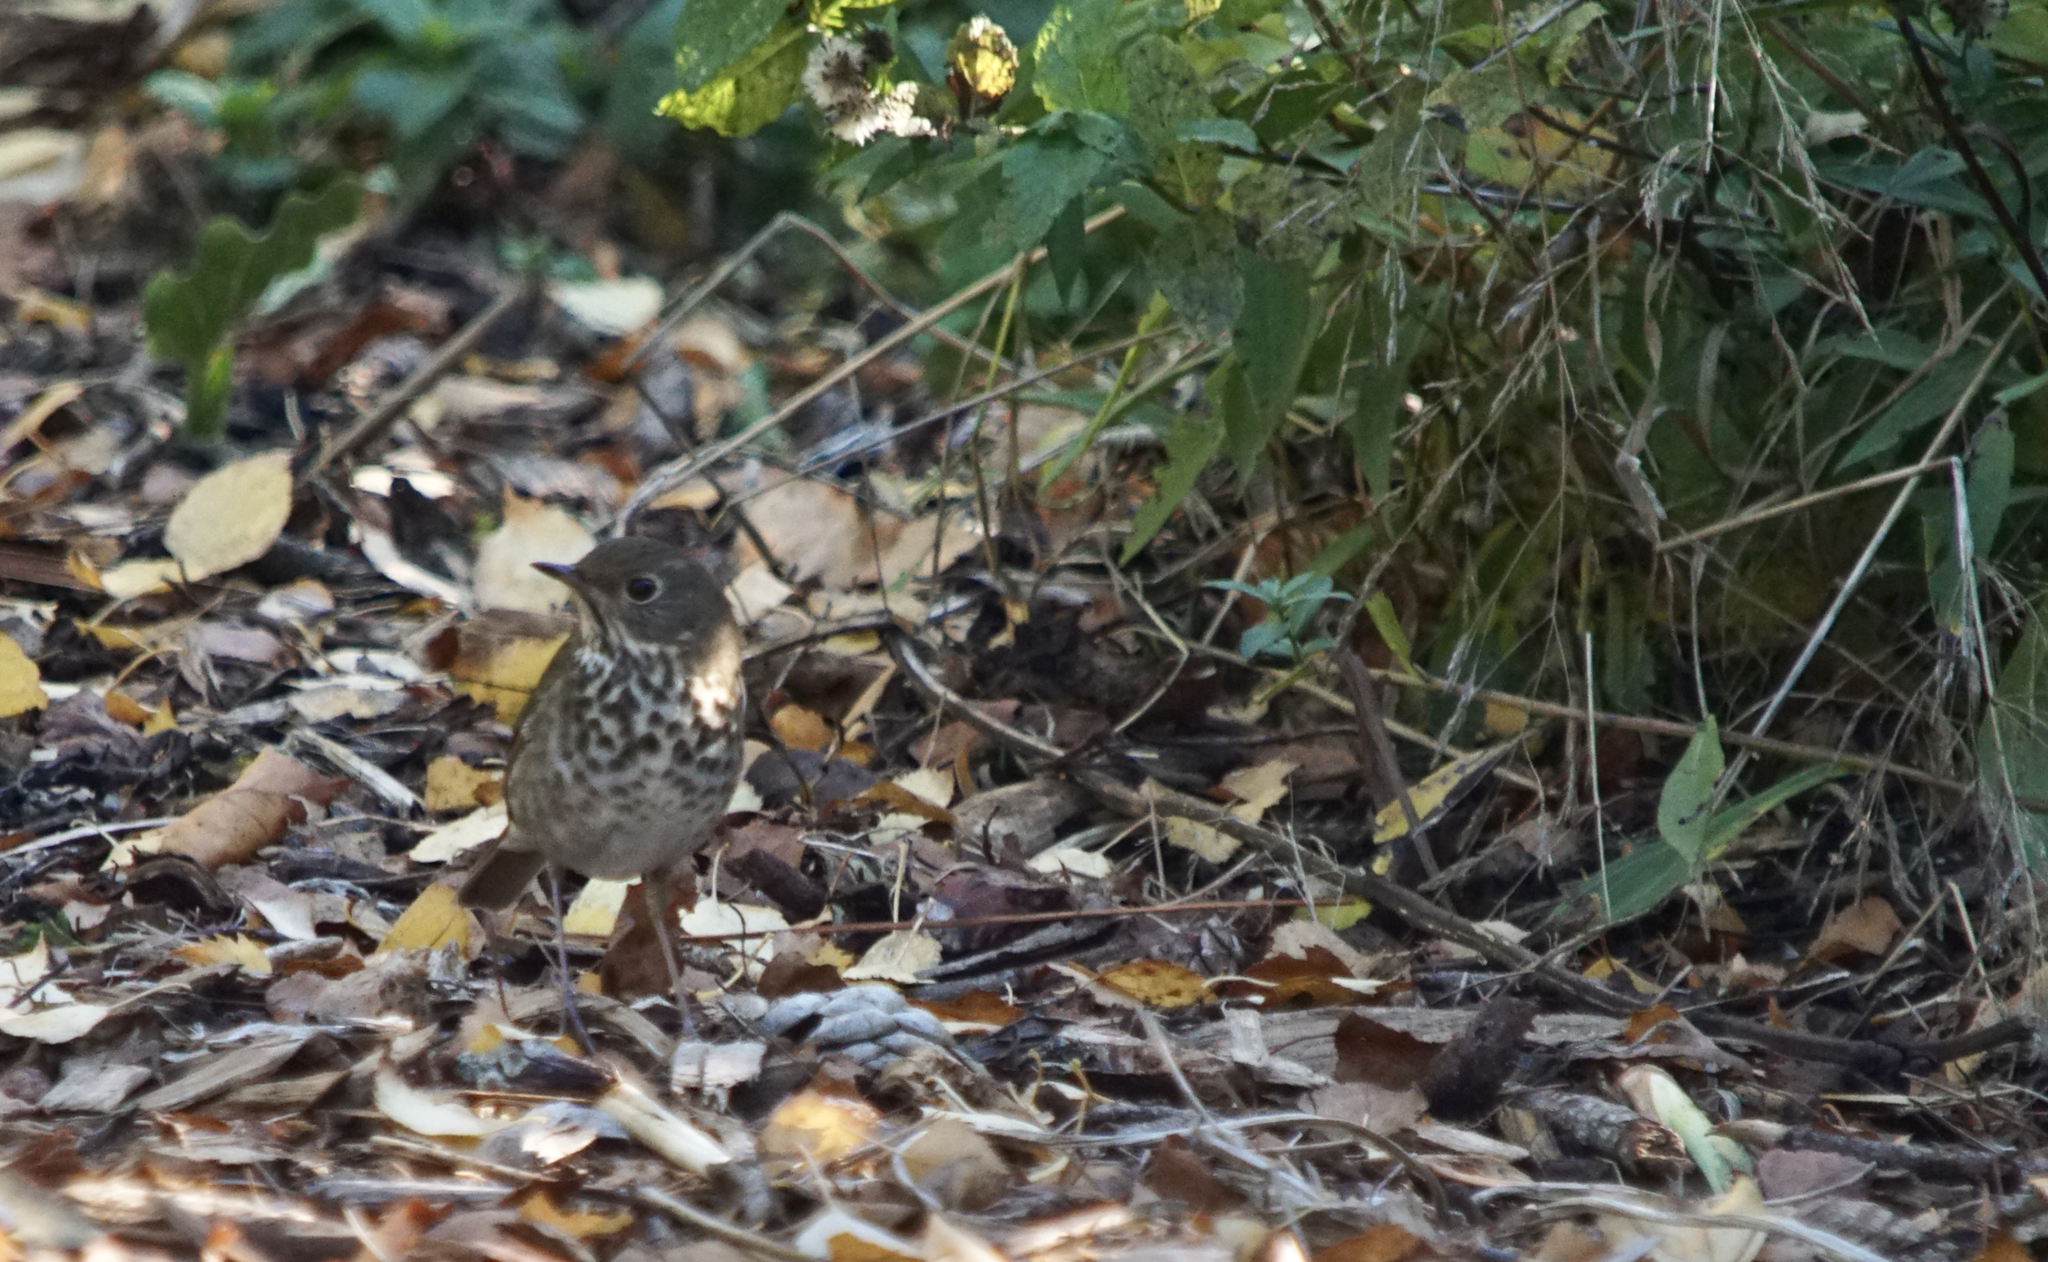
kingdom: Animalia
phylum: Chordata
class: Aves
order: Passeriformes
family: Turdidae
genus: Catharus
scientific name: Catharus guttatus
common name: Hermit thrush
